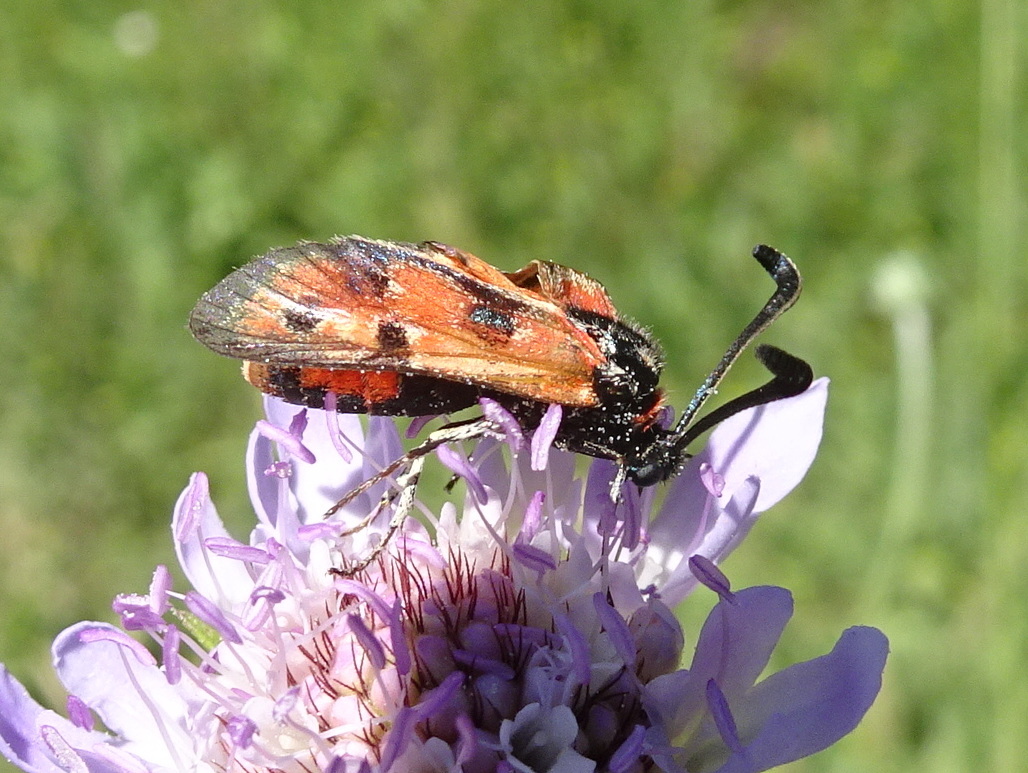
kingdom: Animalia
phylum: Arthropoda
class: Insecta
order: Lepidoptera
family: Zygaenidae
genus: Zygaena
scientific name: Zygaena fausta
